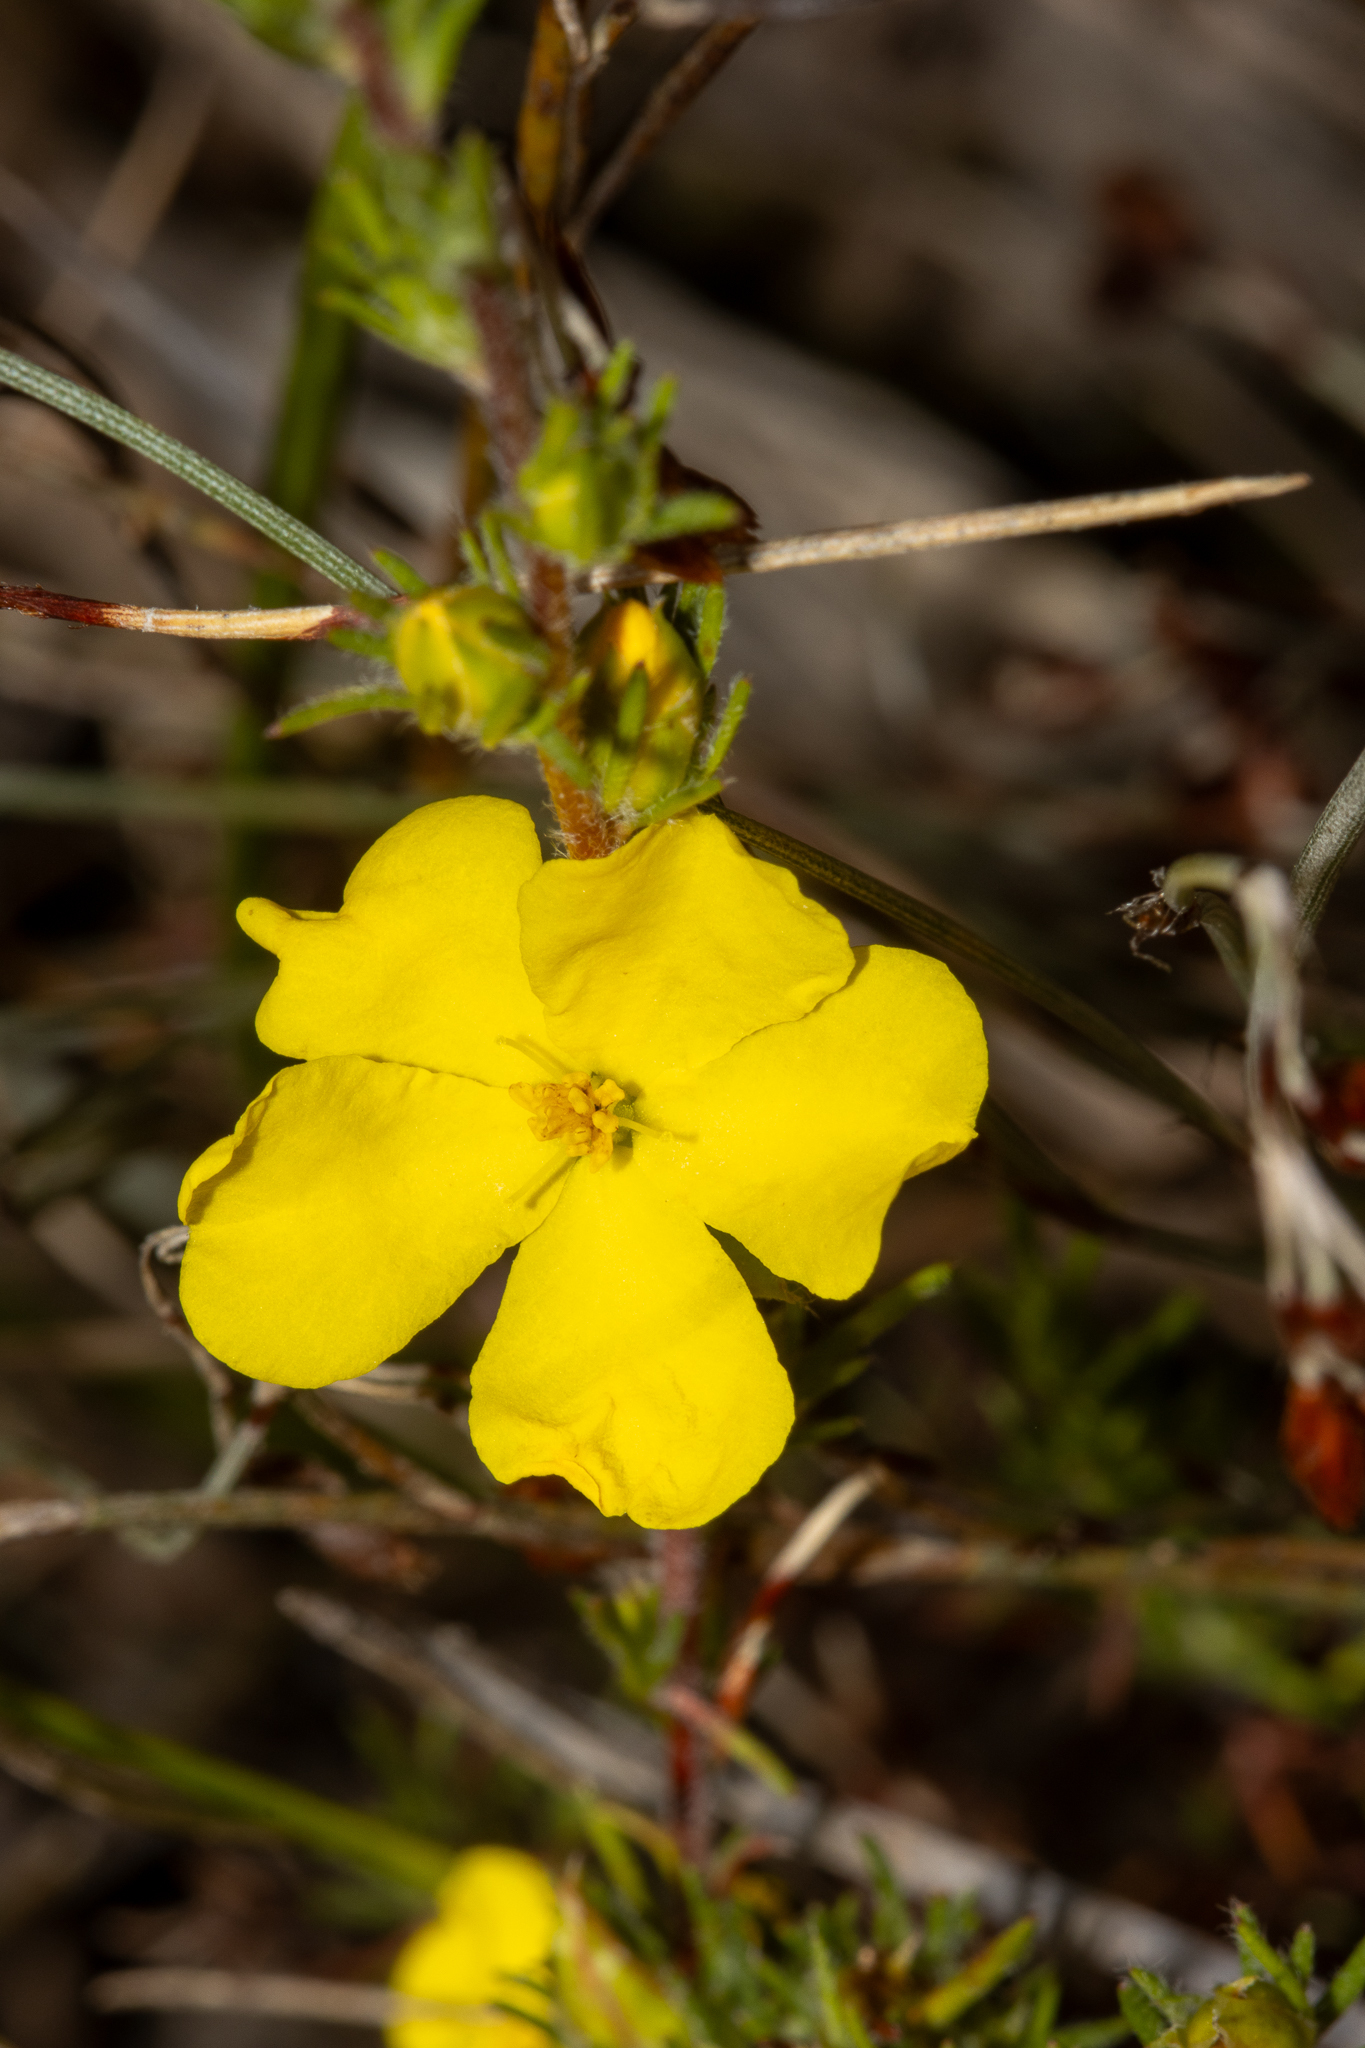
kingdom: Plantae
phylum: Tracheophyta
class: Magnoliopsida
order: Dilleniales
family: Dilleniaceae
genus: Hibbertia
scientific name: Hibbertia fasciculata
